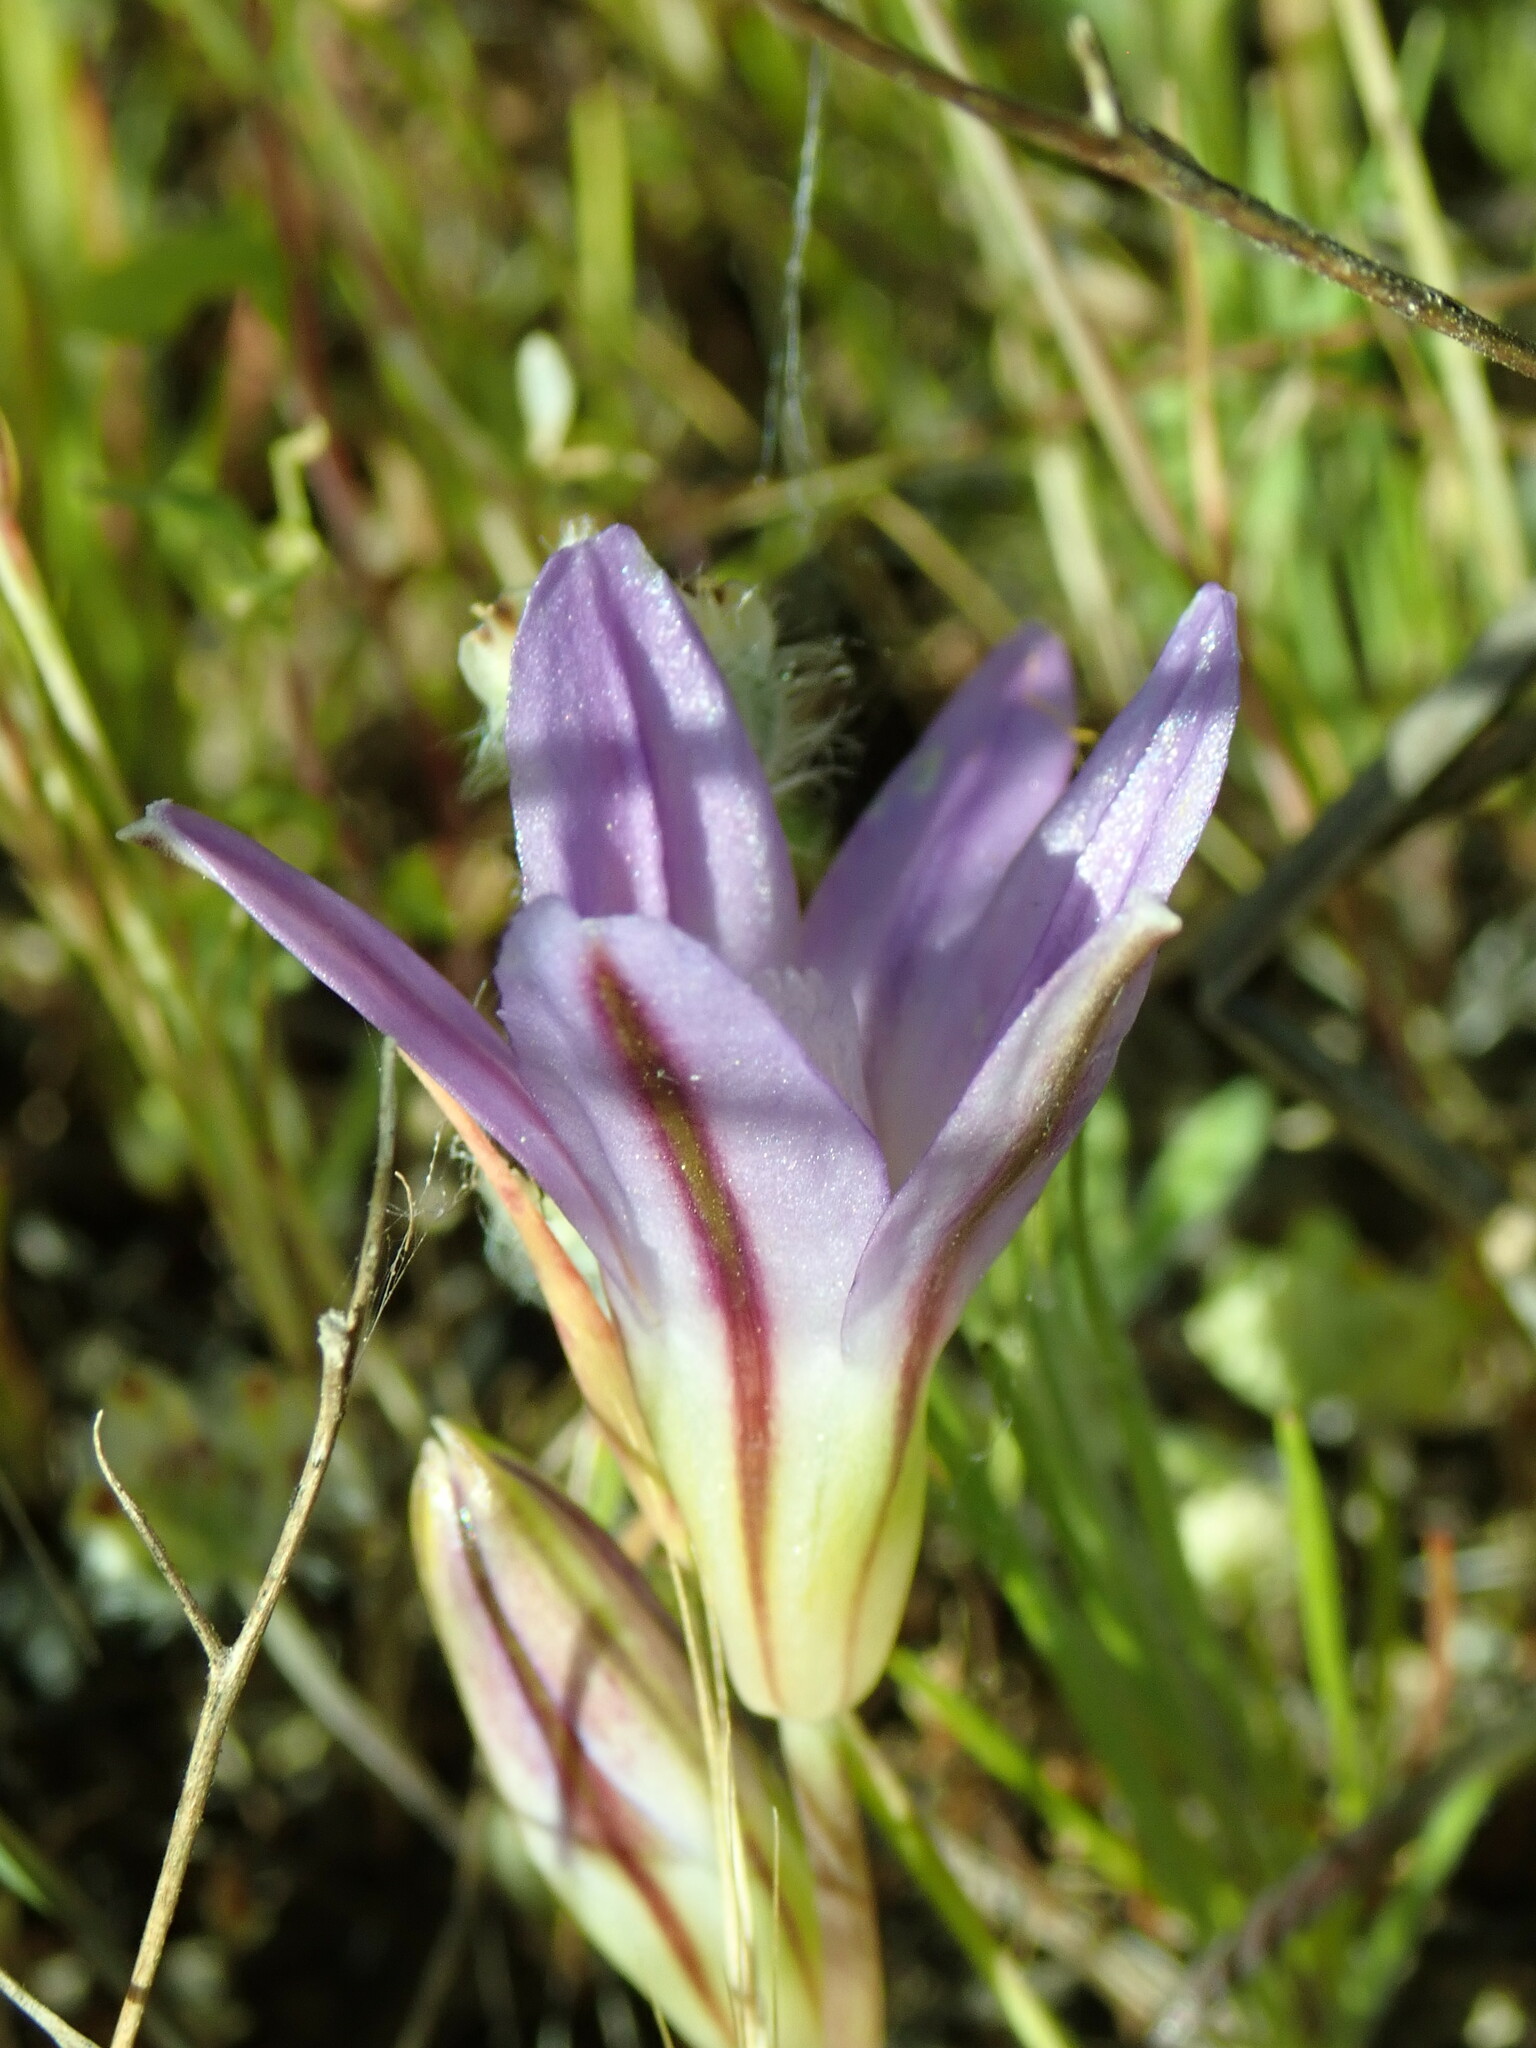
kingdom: Plantae
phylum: Tracheophyta
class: Liliopsida
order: Asparagales
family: Asparagaceae
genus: Brodiaea
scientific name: Brodiaea terrestris
